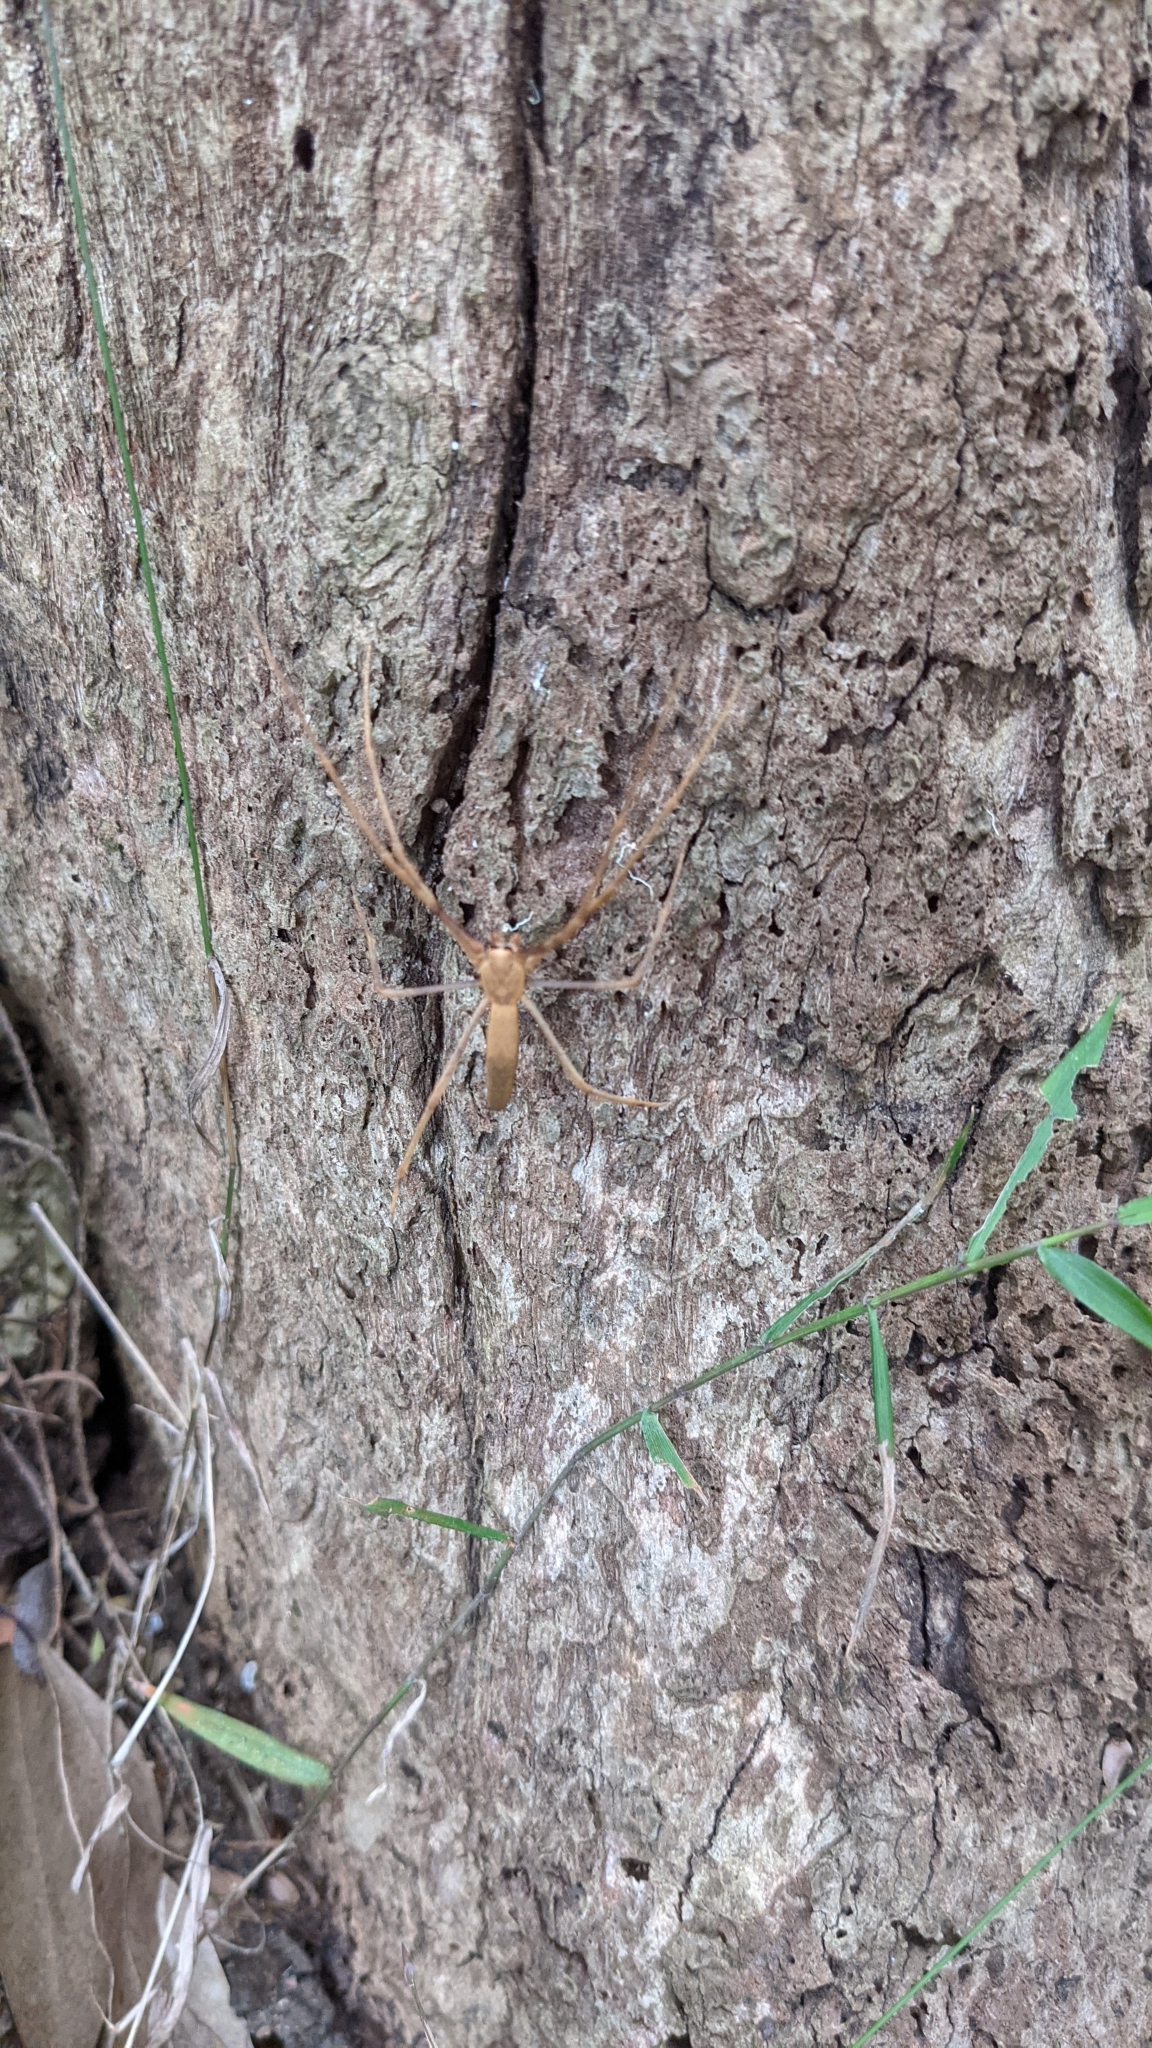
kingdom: Animalia
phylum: Arthropoda
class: Arachnida
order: Araneae
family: Deinopidae
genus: Deinopis
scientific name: Deinopis subrufa
